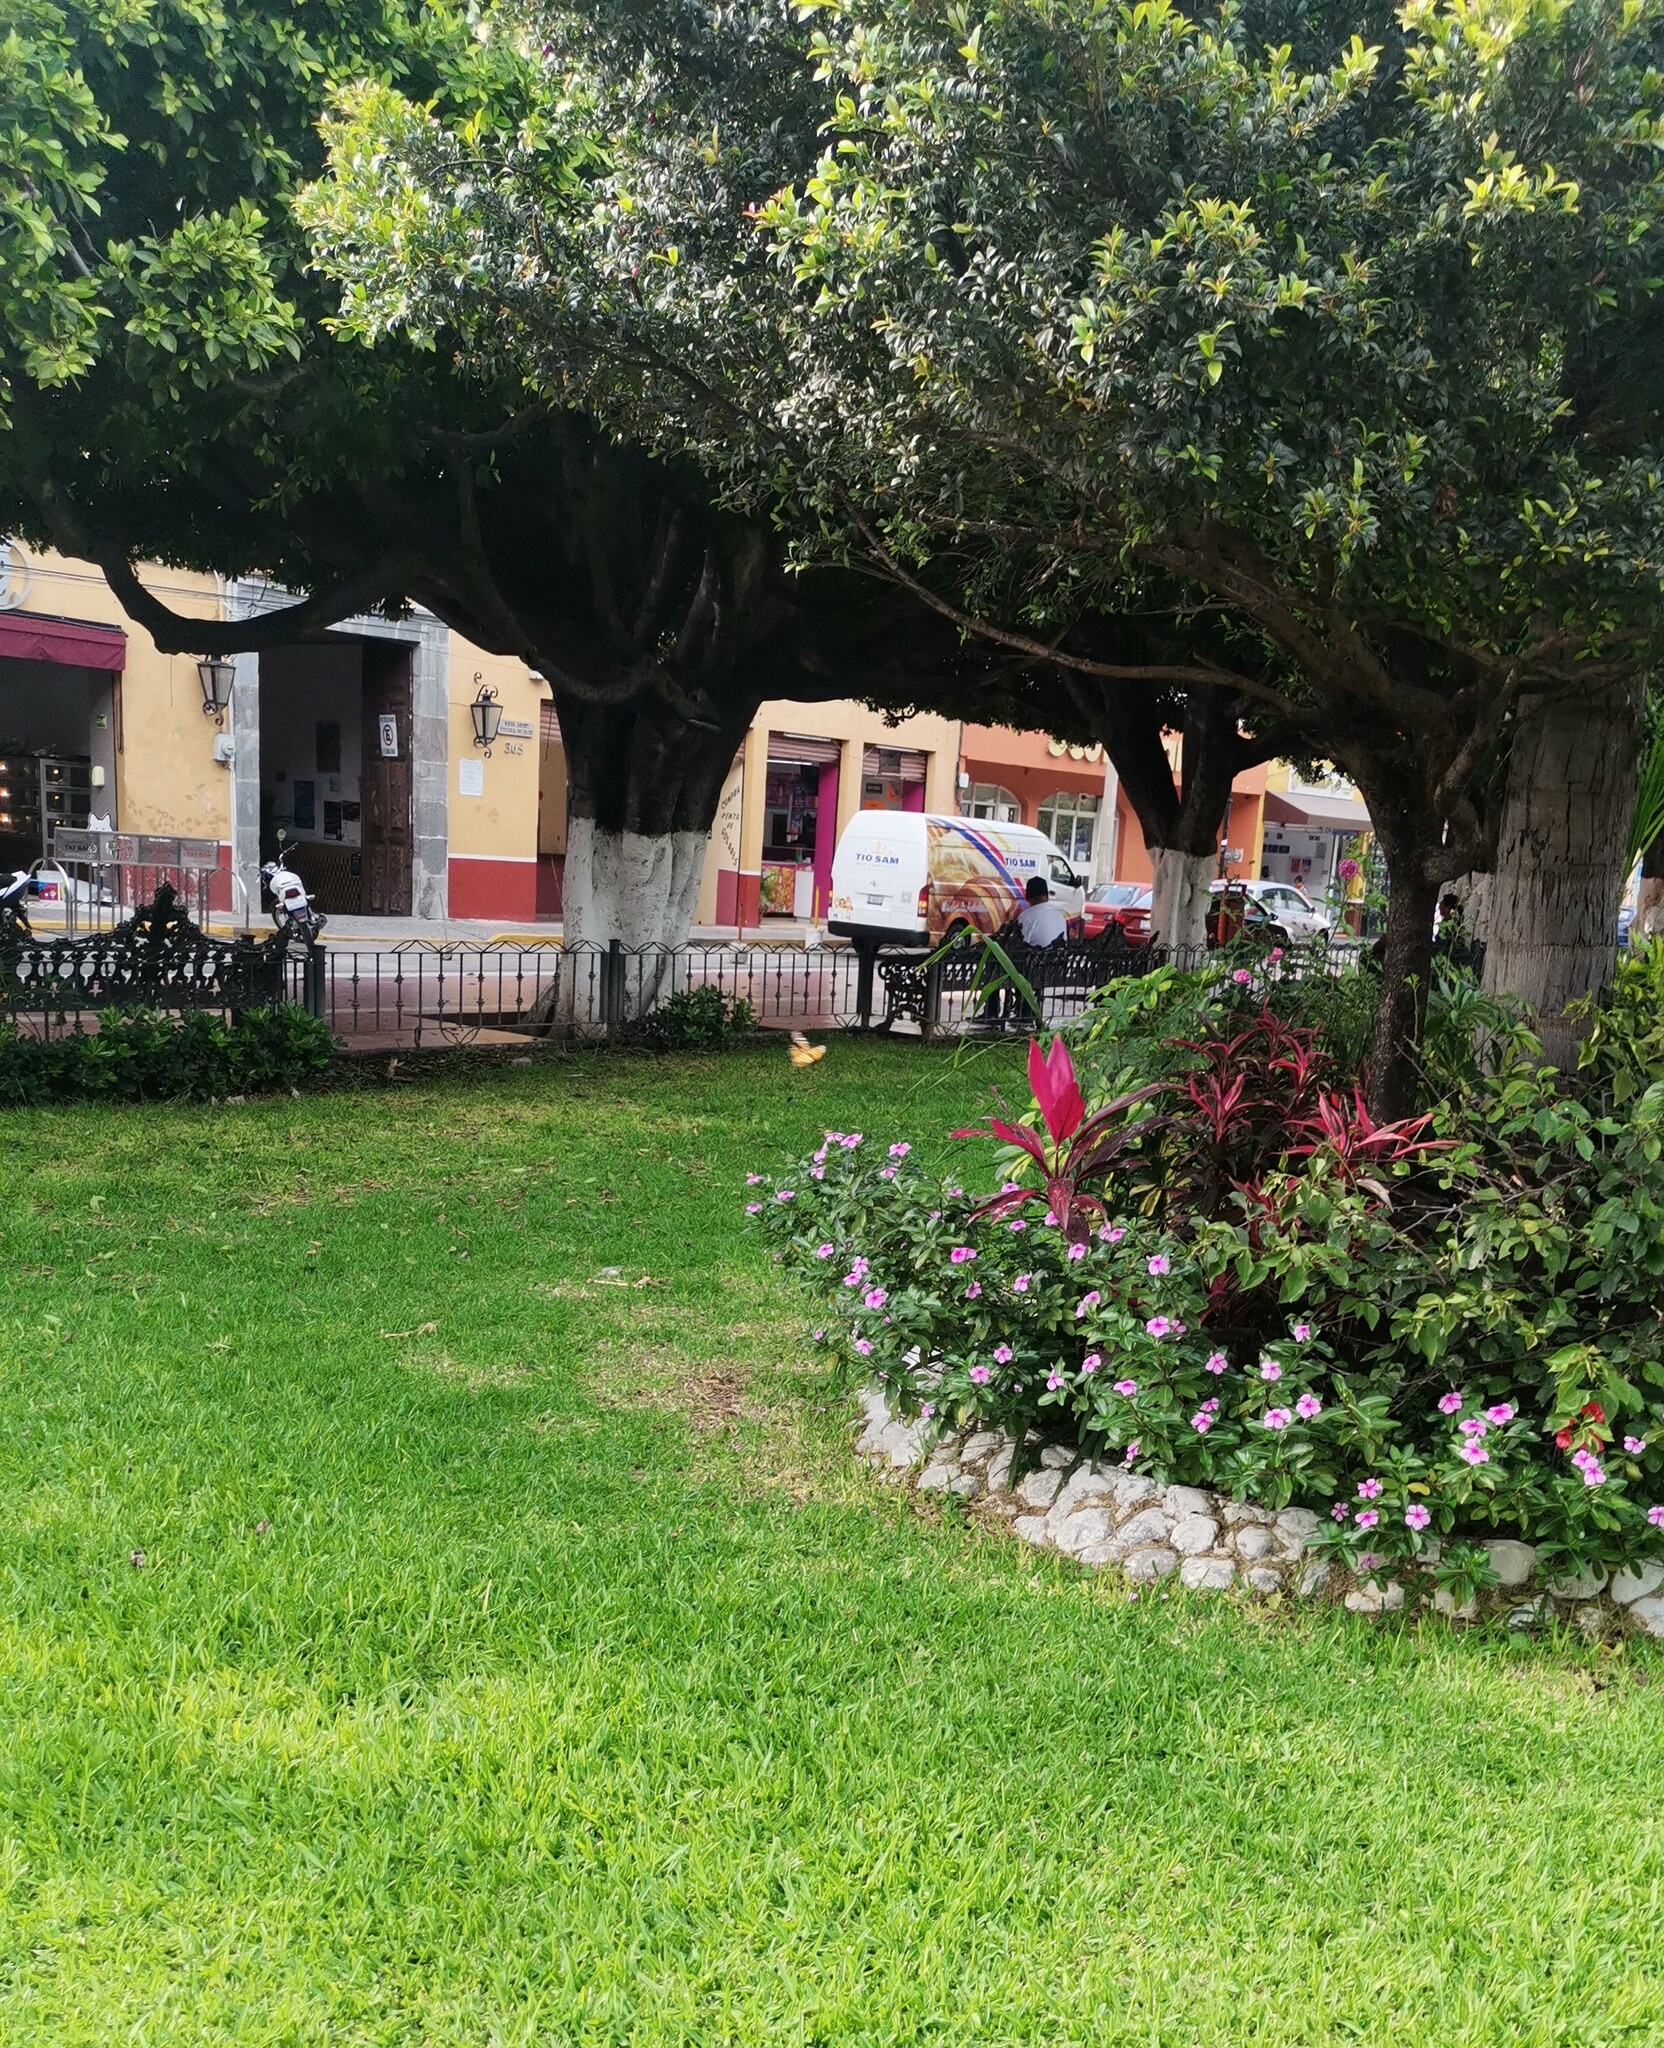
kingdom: Animalia
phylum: Arthropoda
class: Insecta
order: Lepidoptera
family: Nymphalidae
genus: Danaus
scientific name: Danaus plexippus
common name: Monarch
